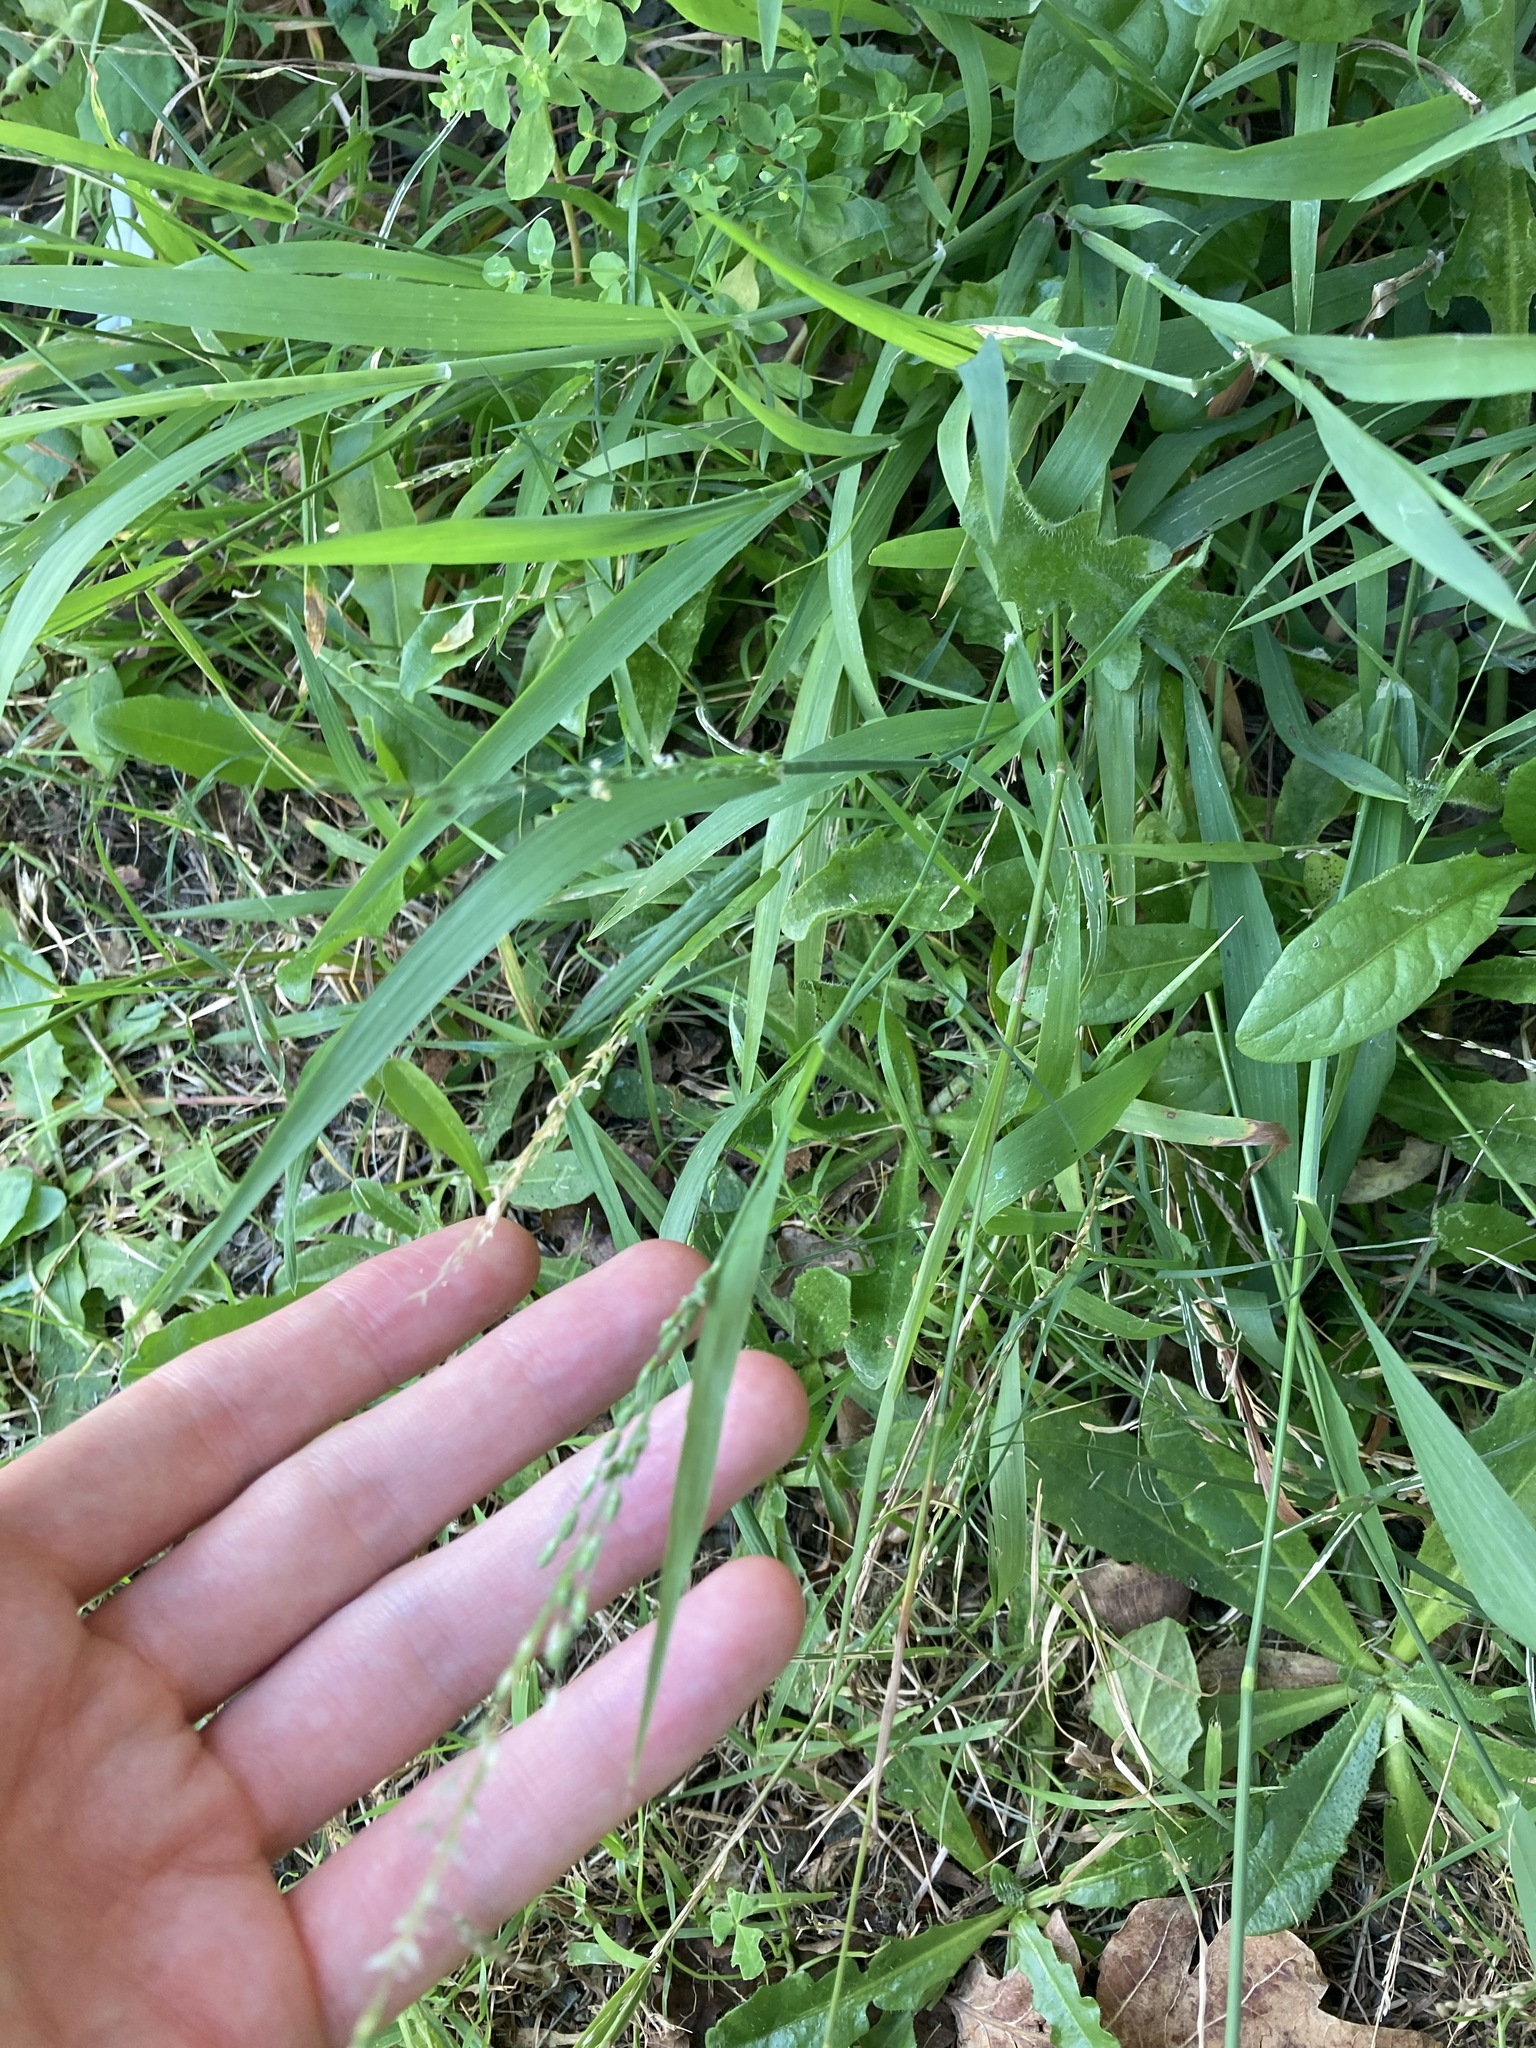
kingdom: Plantae
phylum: Tracheophyta
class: Liliopsida
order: Poales
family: Poaceae
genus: Ehrharta
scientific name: Ehrharta erecta
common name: Panic veldtgrass
